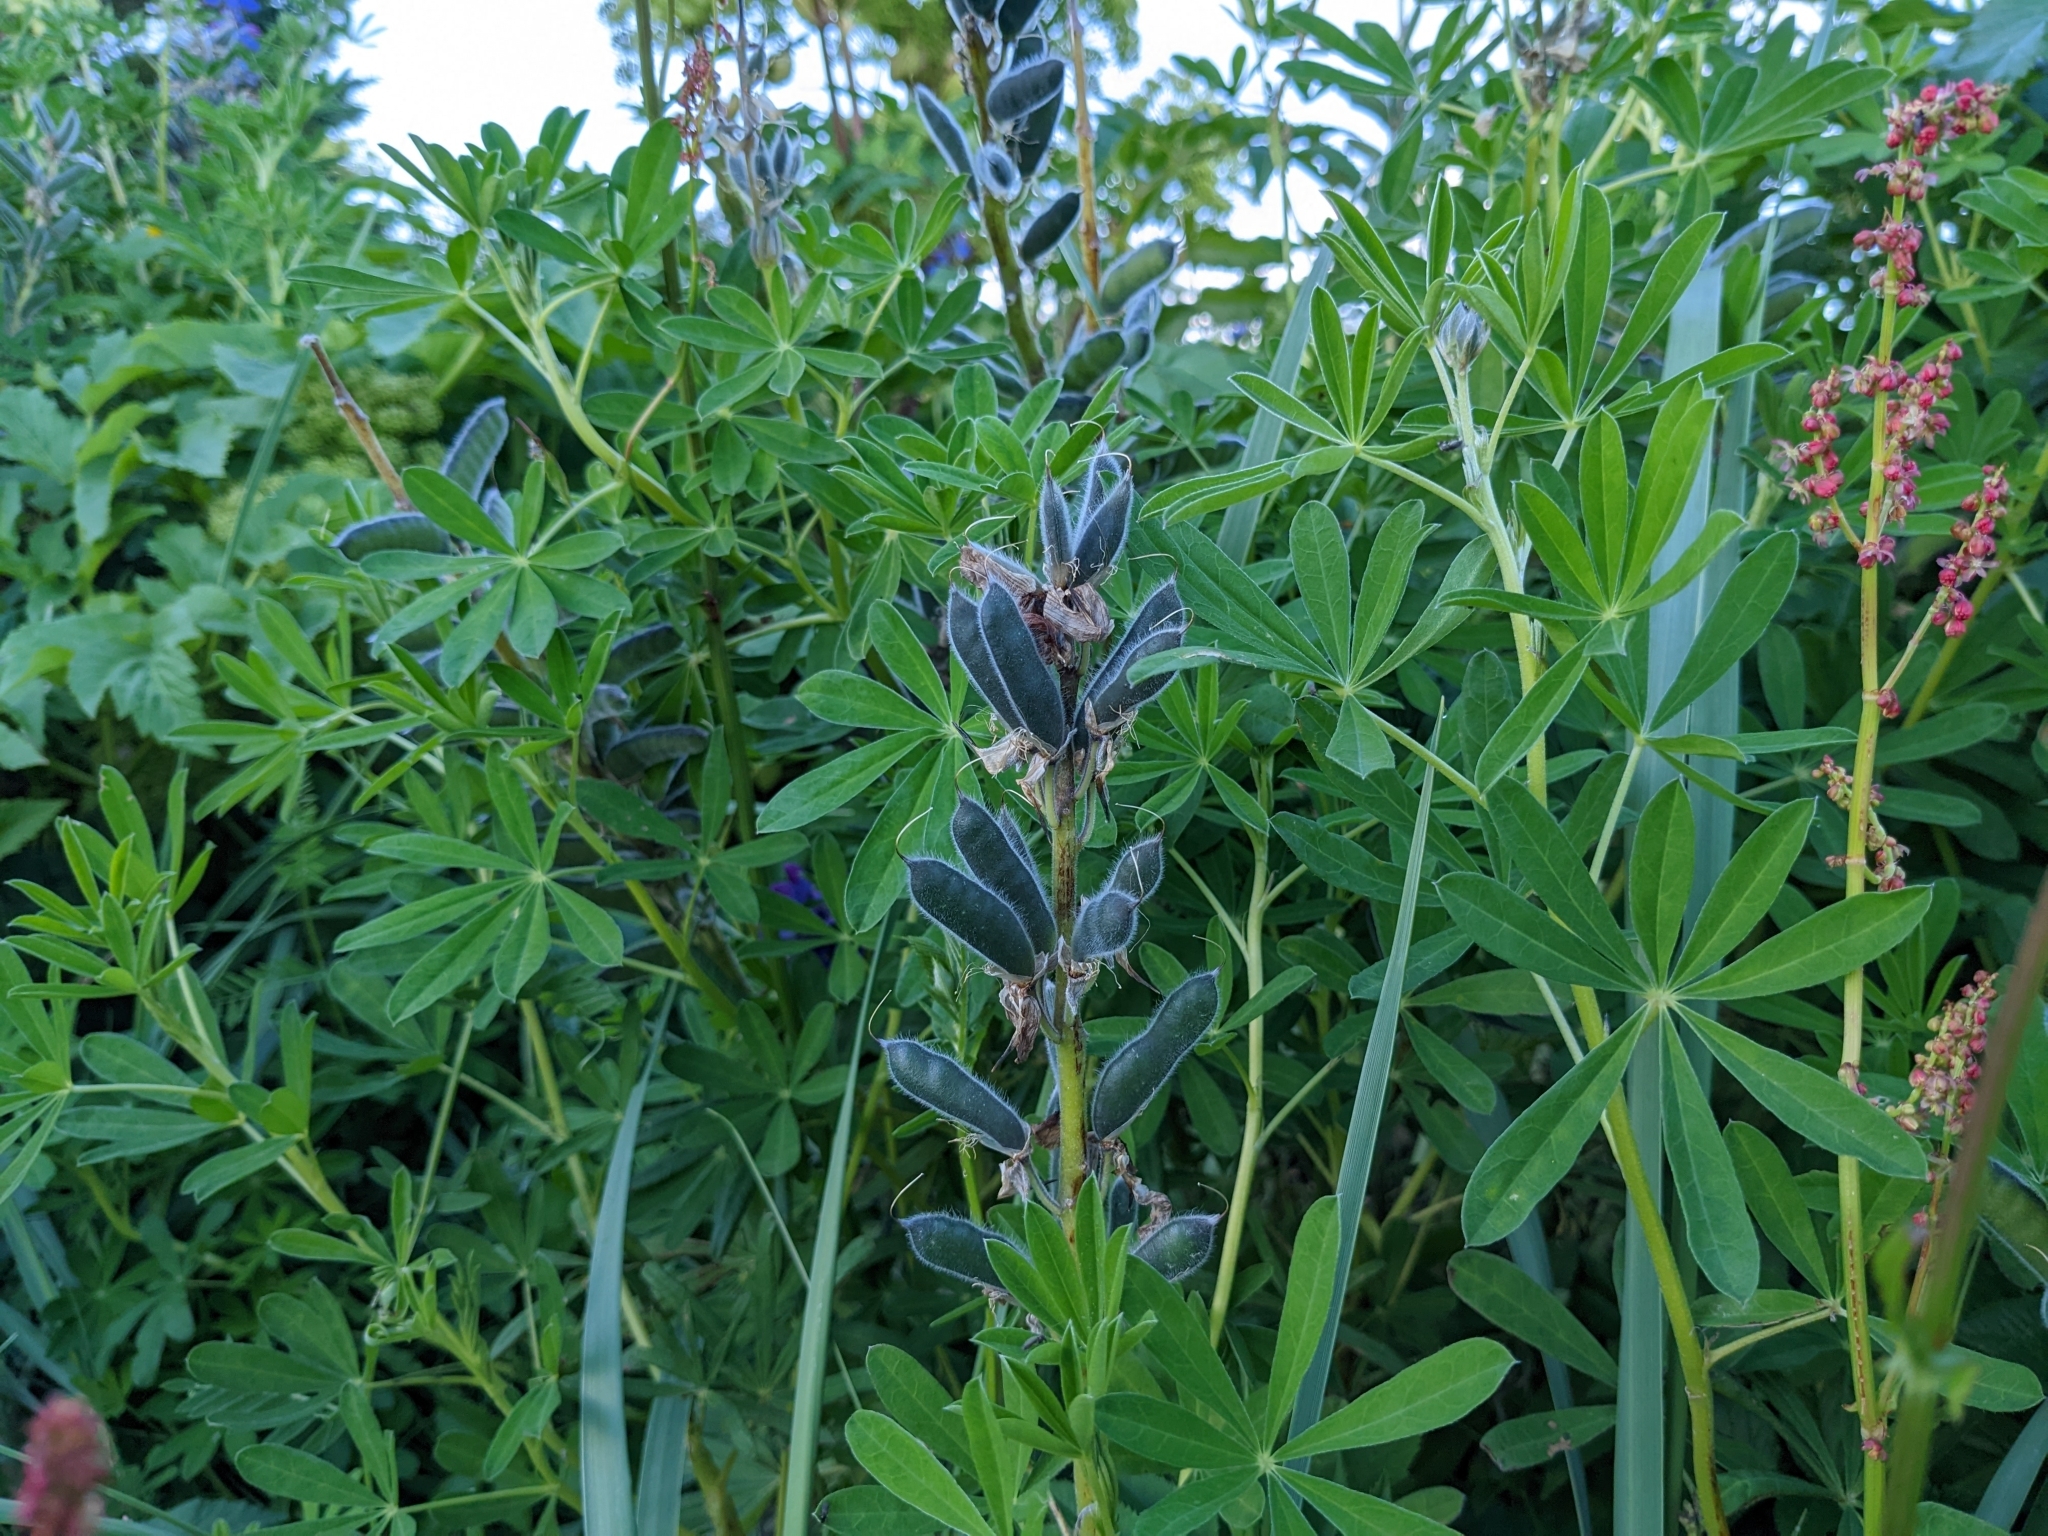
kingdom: Plantae
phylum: Tracheophyta
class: Magnoliopsida
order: Fabales
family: Fabaceae
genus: Lupinus
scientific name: Lupinus nootkatensis
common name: Nootka lupine
